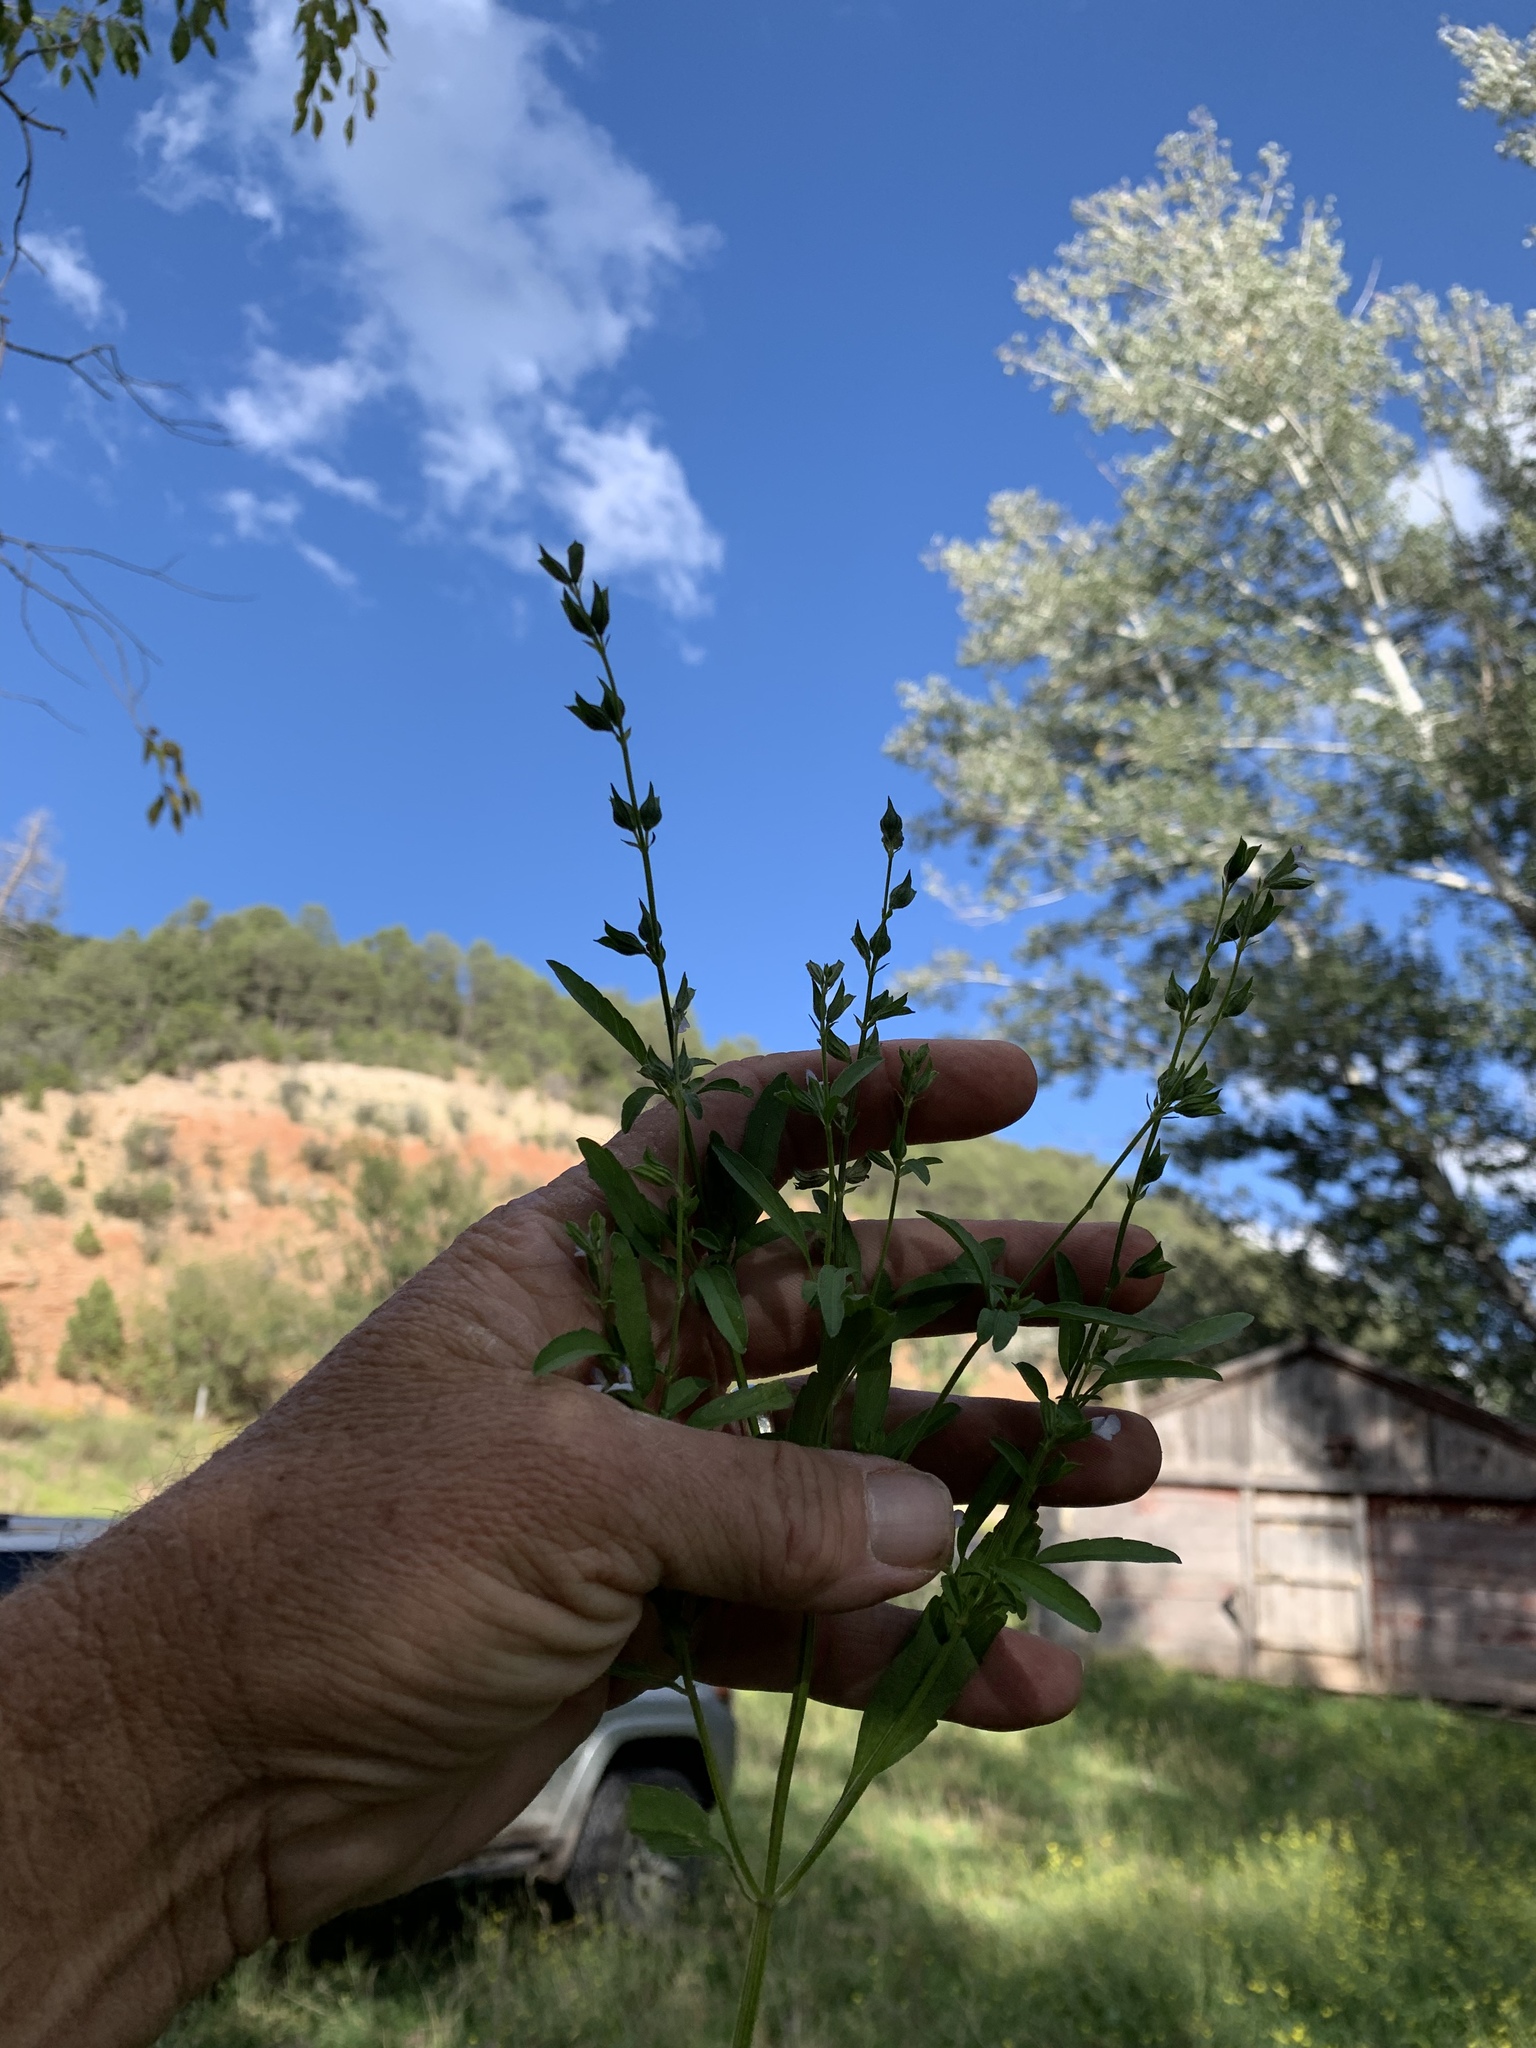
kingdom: Plantae
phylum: Tracheophyta
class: Magnoliopsida
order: Lamiales
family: Lamiaceae
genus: Salvia
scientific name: Salvia reflexa
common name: Mintweed
